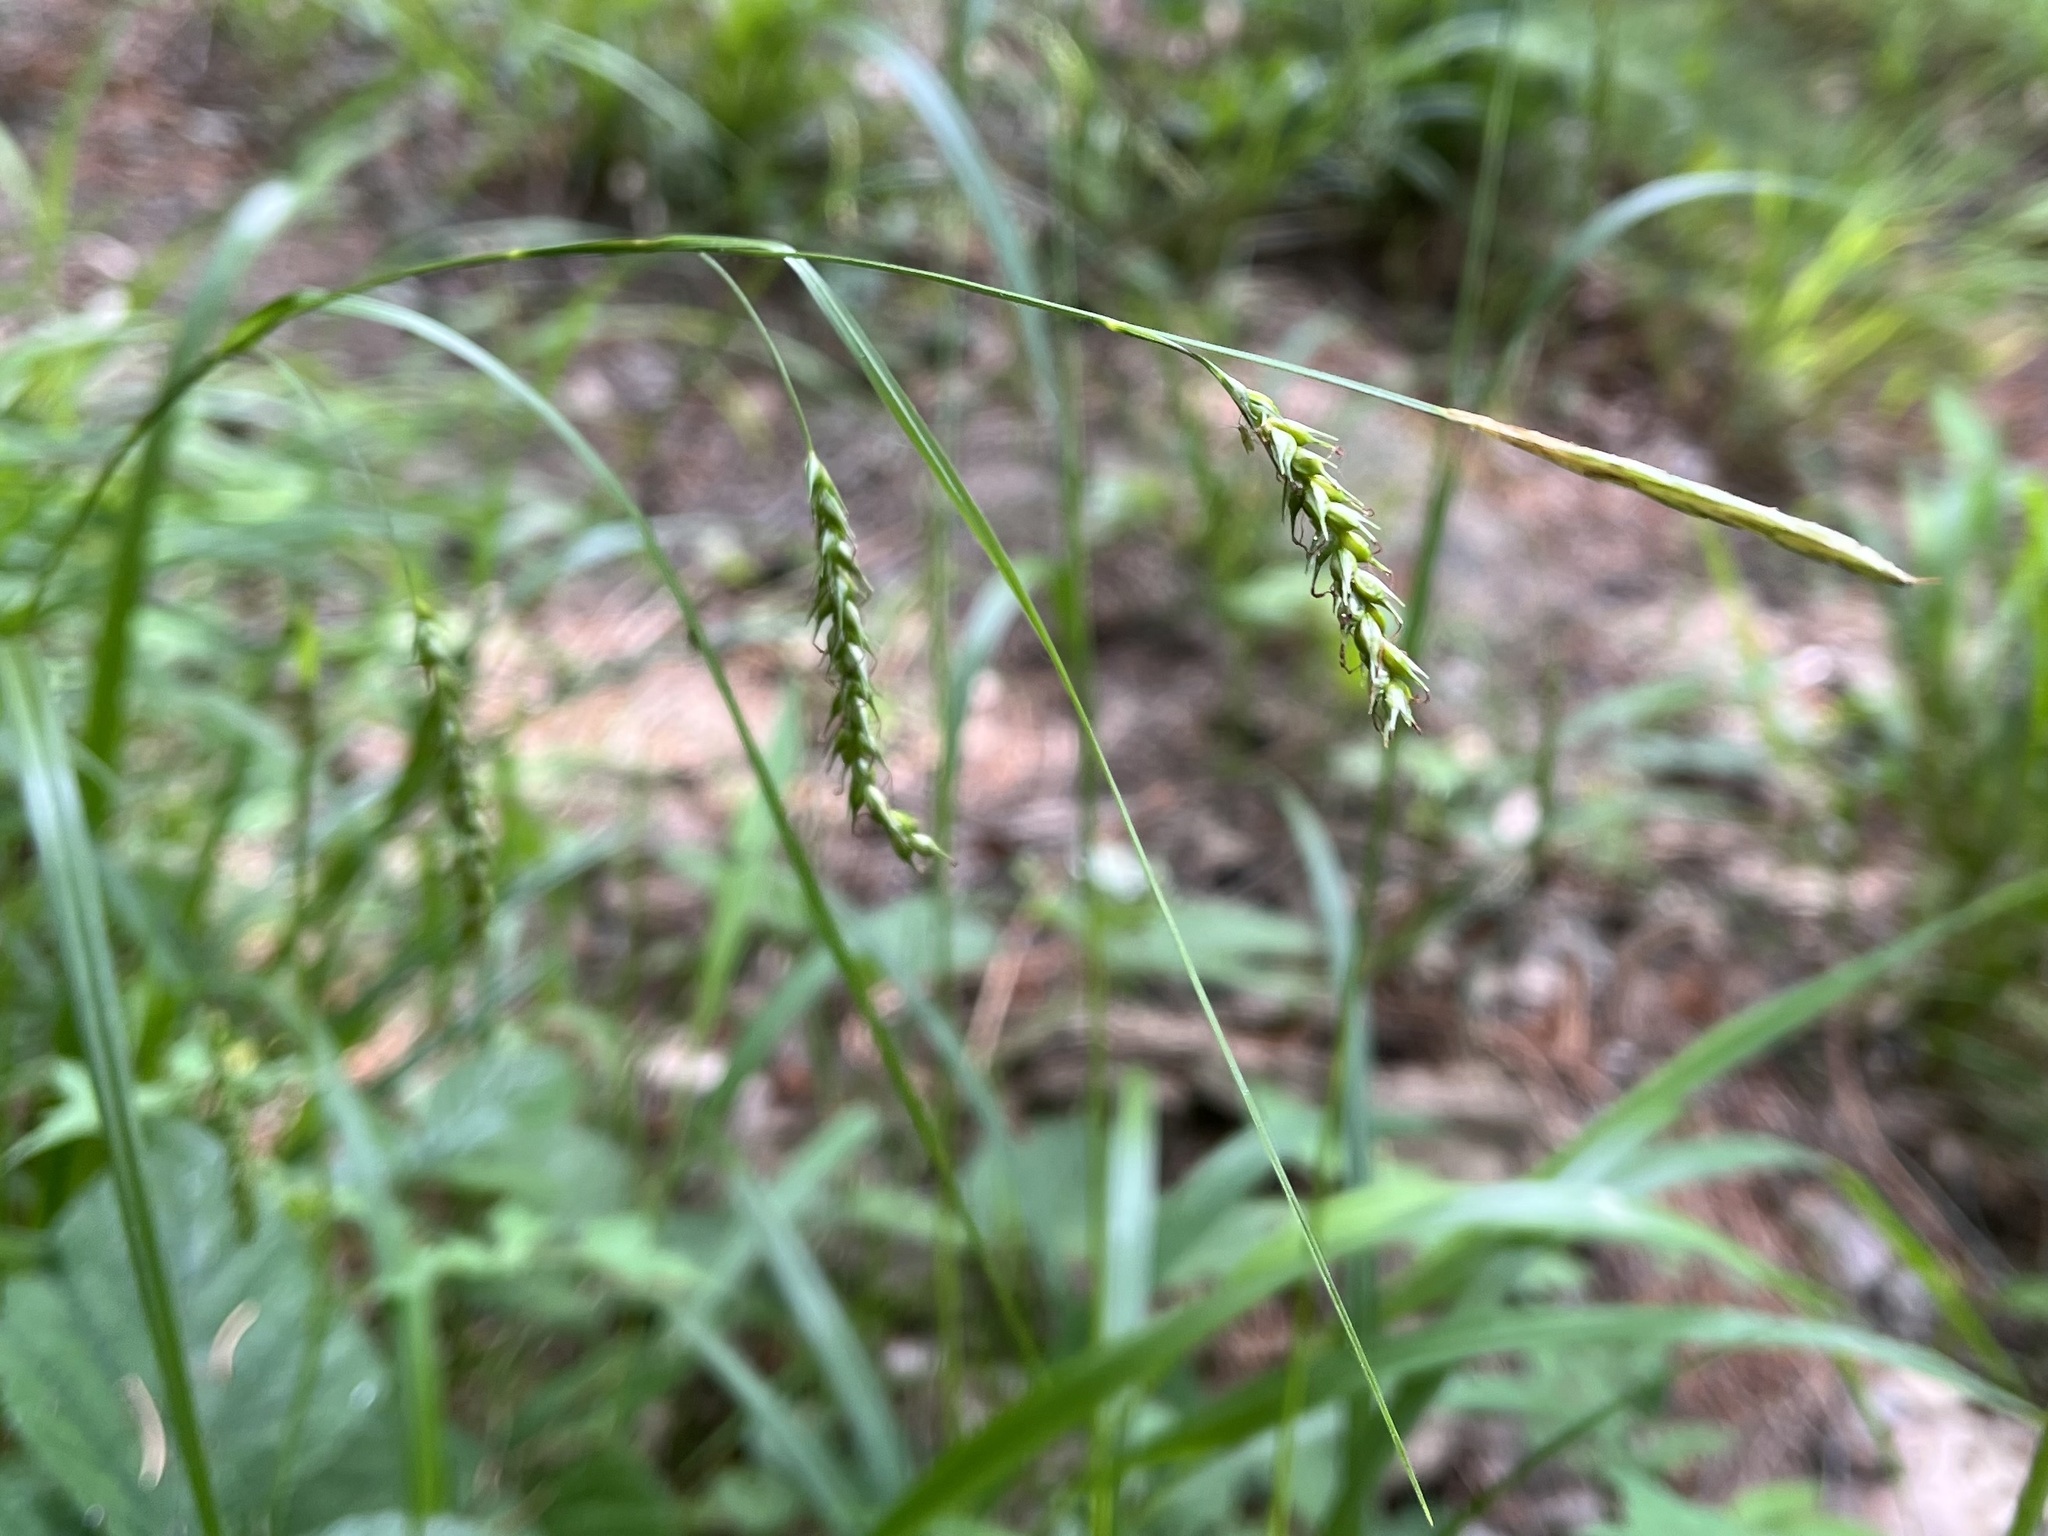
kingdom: Plantae
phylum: Tracheophyta
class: Liliopsida
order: Poales
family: Cyperaceae
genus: Carex
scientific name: Carex sylvatica
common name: Wood-sedge
